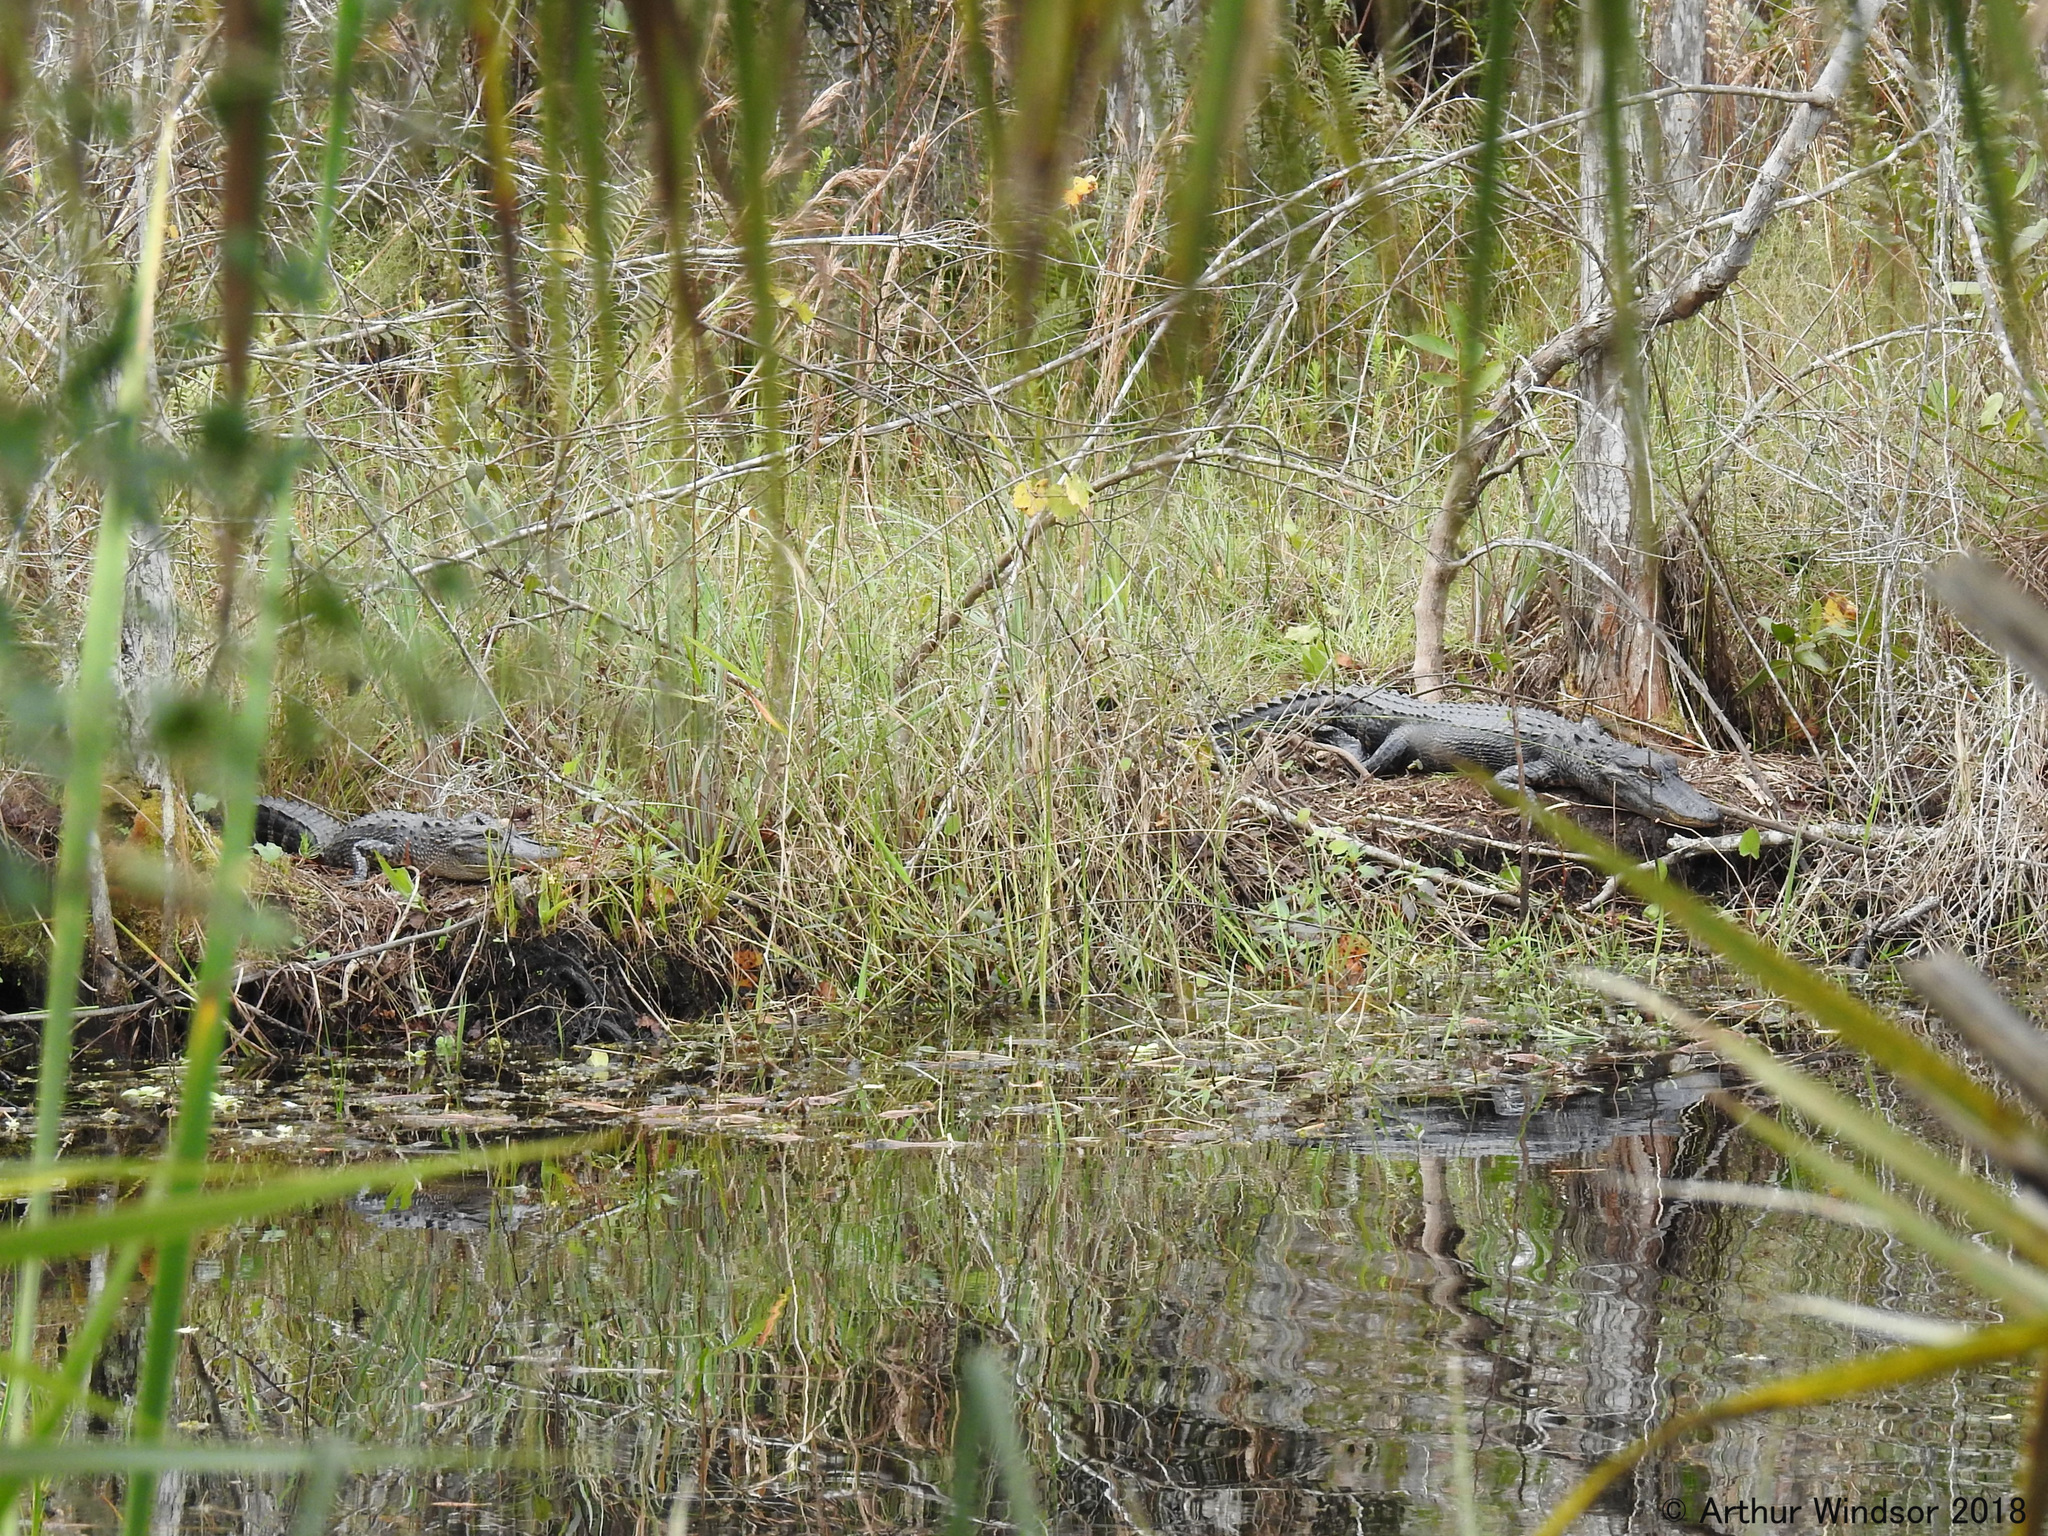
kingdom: Animalia
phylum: Chordata
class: Crocodylia
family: Alligatoridae
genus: Alligator
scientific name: Alligator mississippiensis
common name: American alligator
